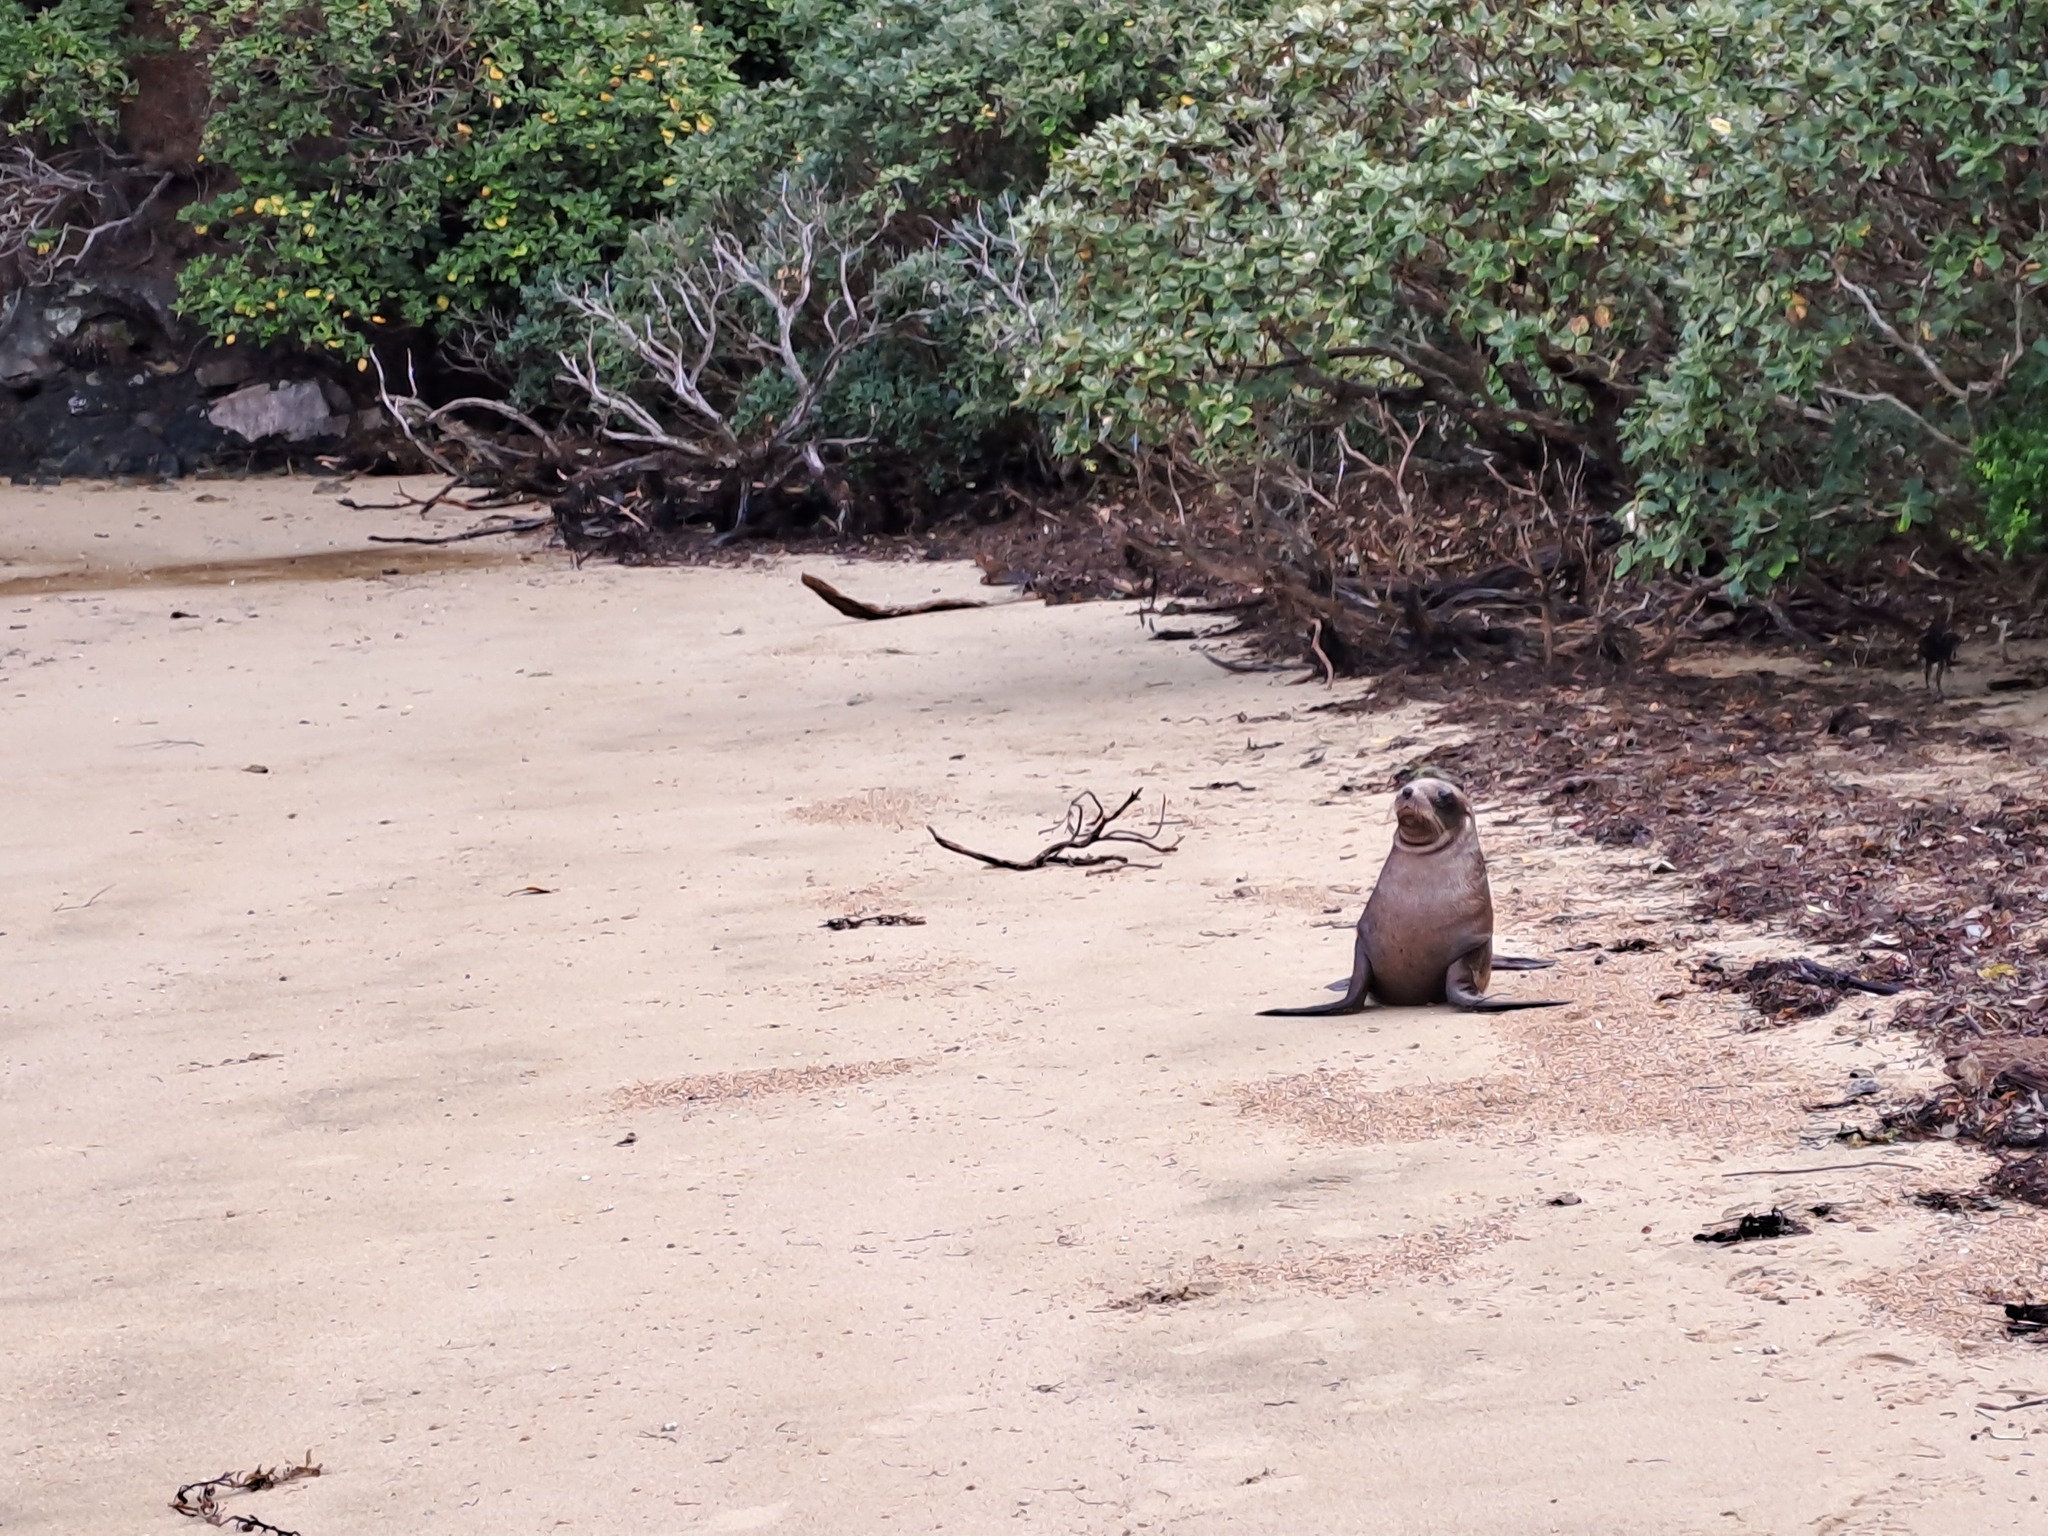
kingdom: Animalia
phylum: Chordata
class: Mammalia
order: Carnivora
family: Otariidae
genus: Arctocephalus
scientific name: Arctocephalus forsteri
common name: New zealand fur seal
